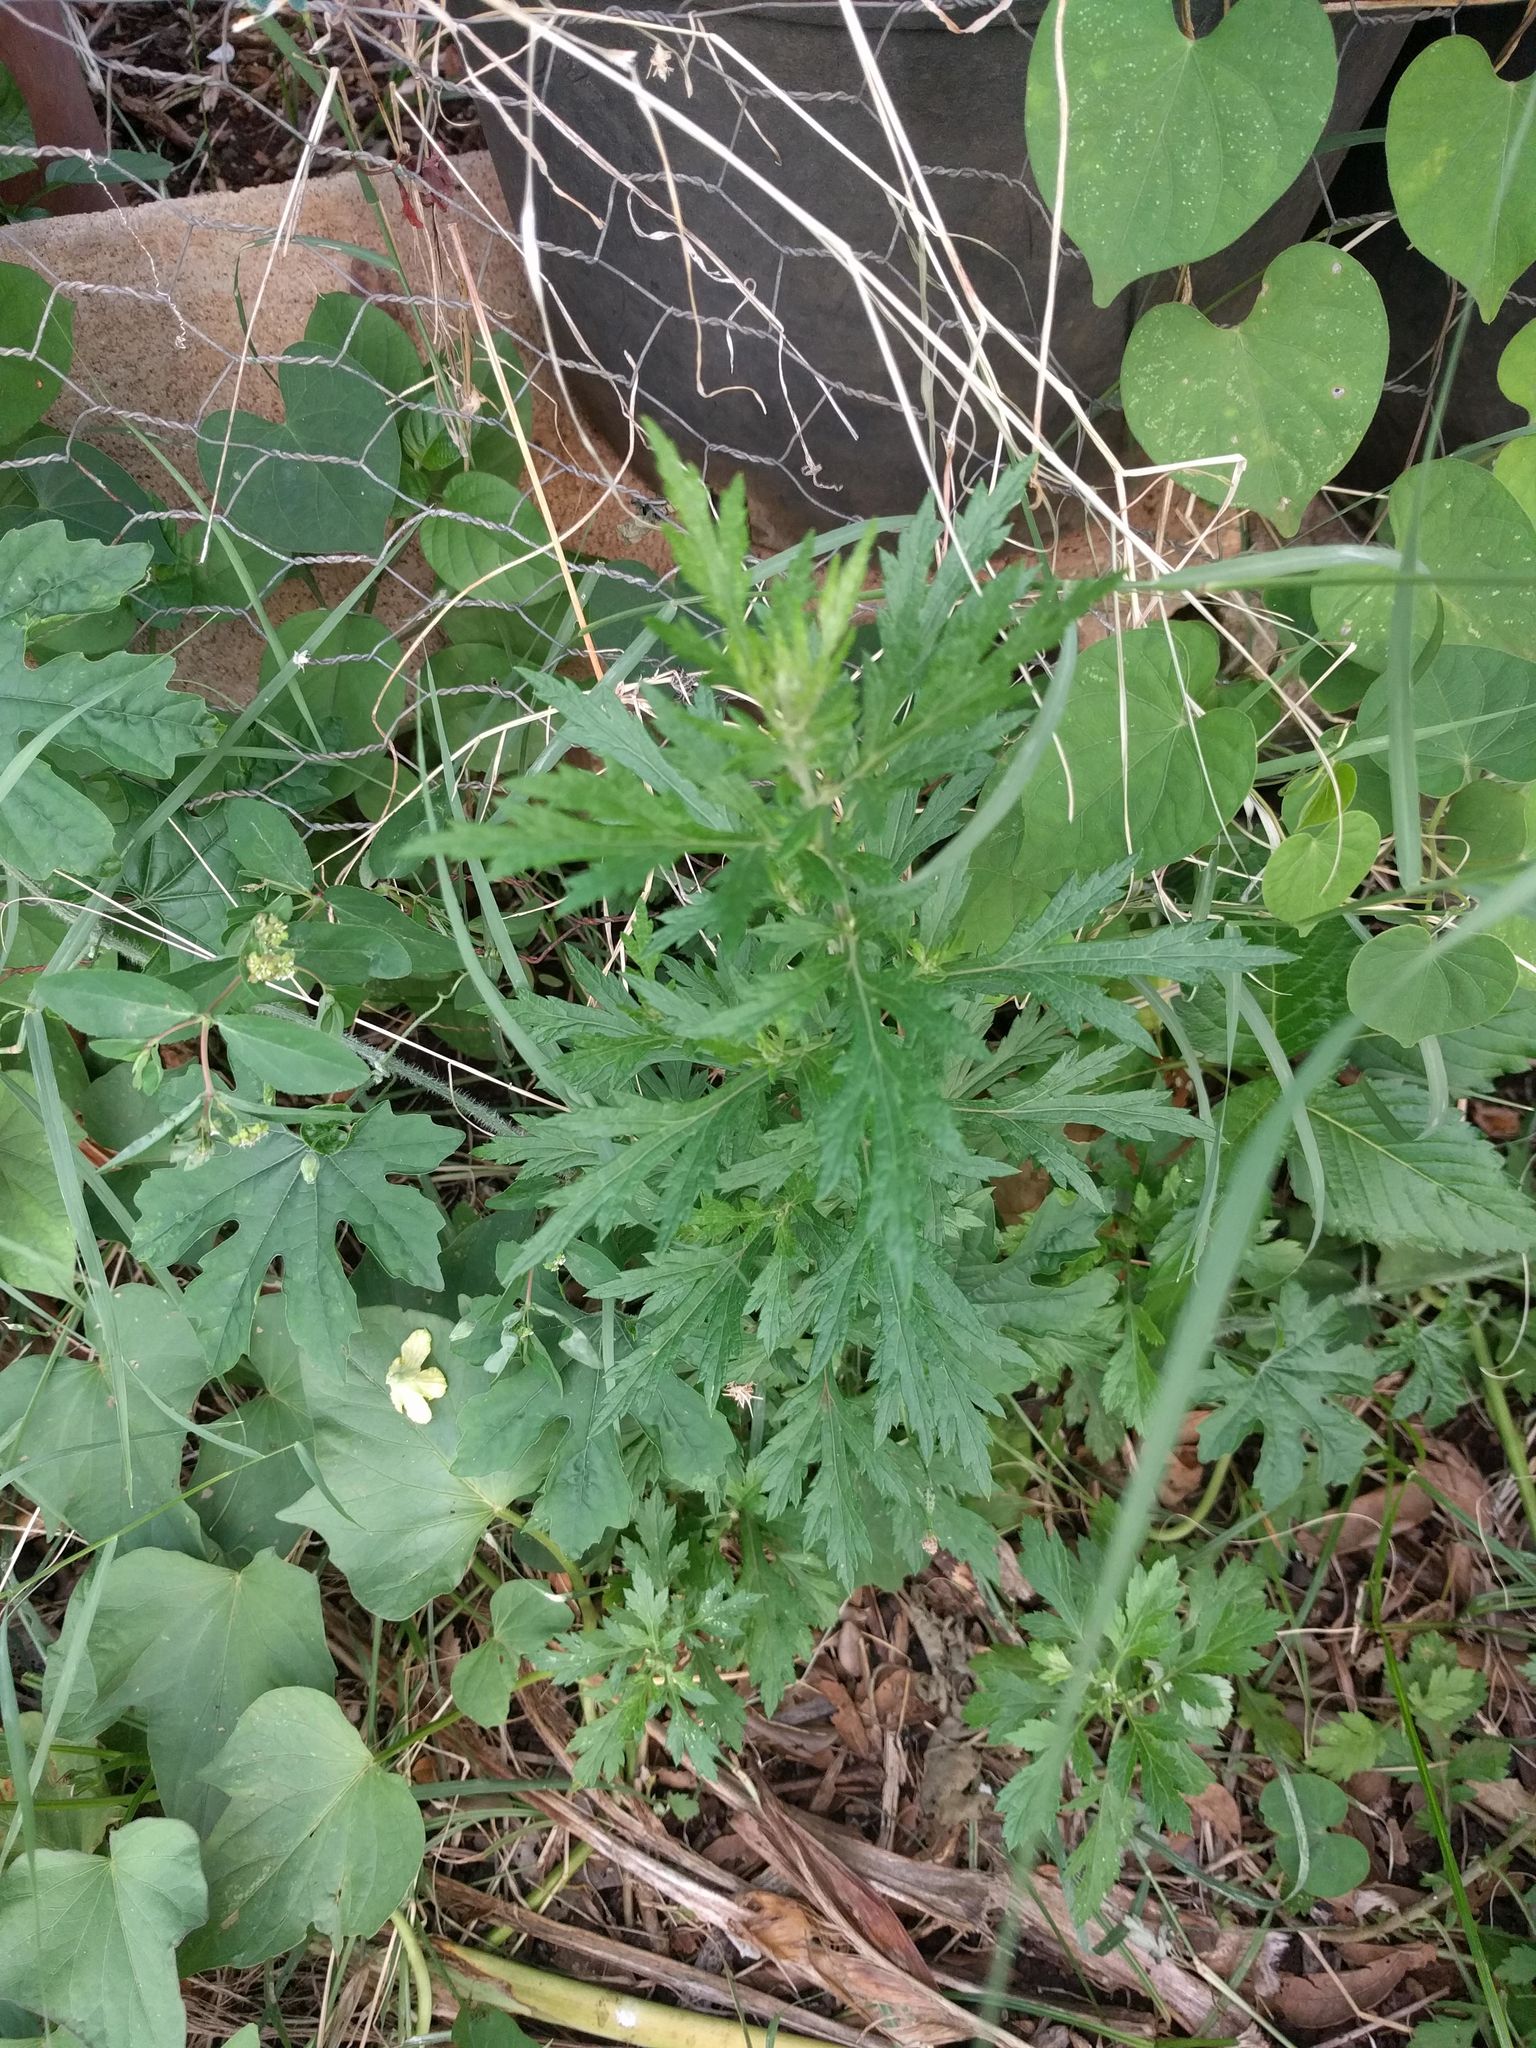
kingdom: Plantae
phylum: Tracheophyta
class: Magnoliopsida
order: Asterales
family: Asteraceae
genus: Artemisia
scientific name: Artemisia vulgaris
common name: Mugwort
